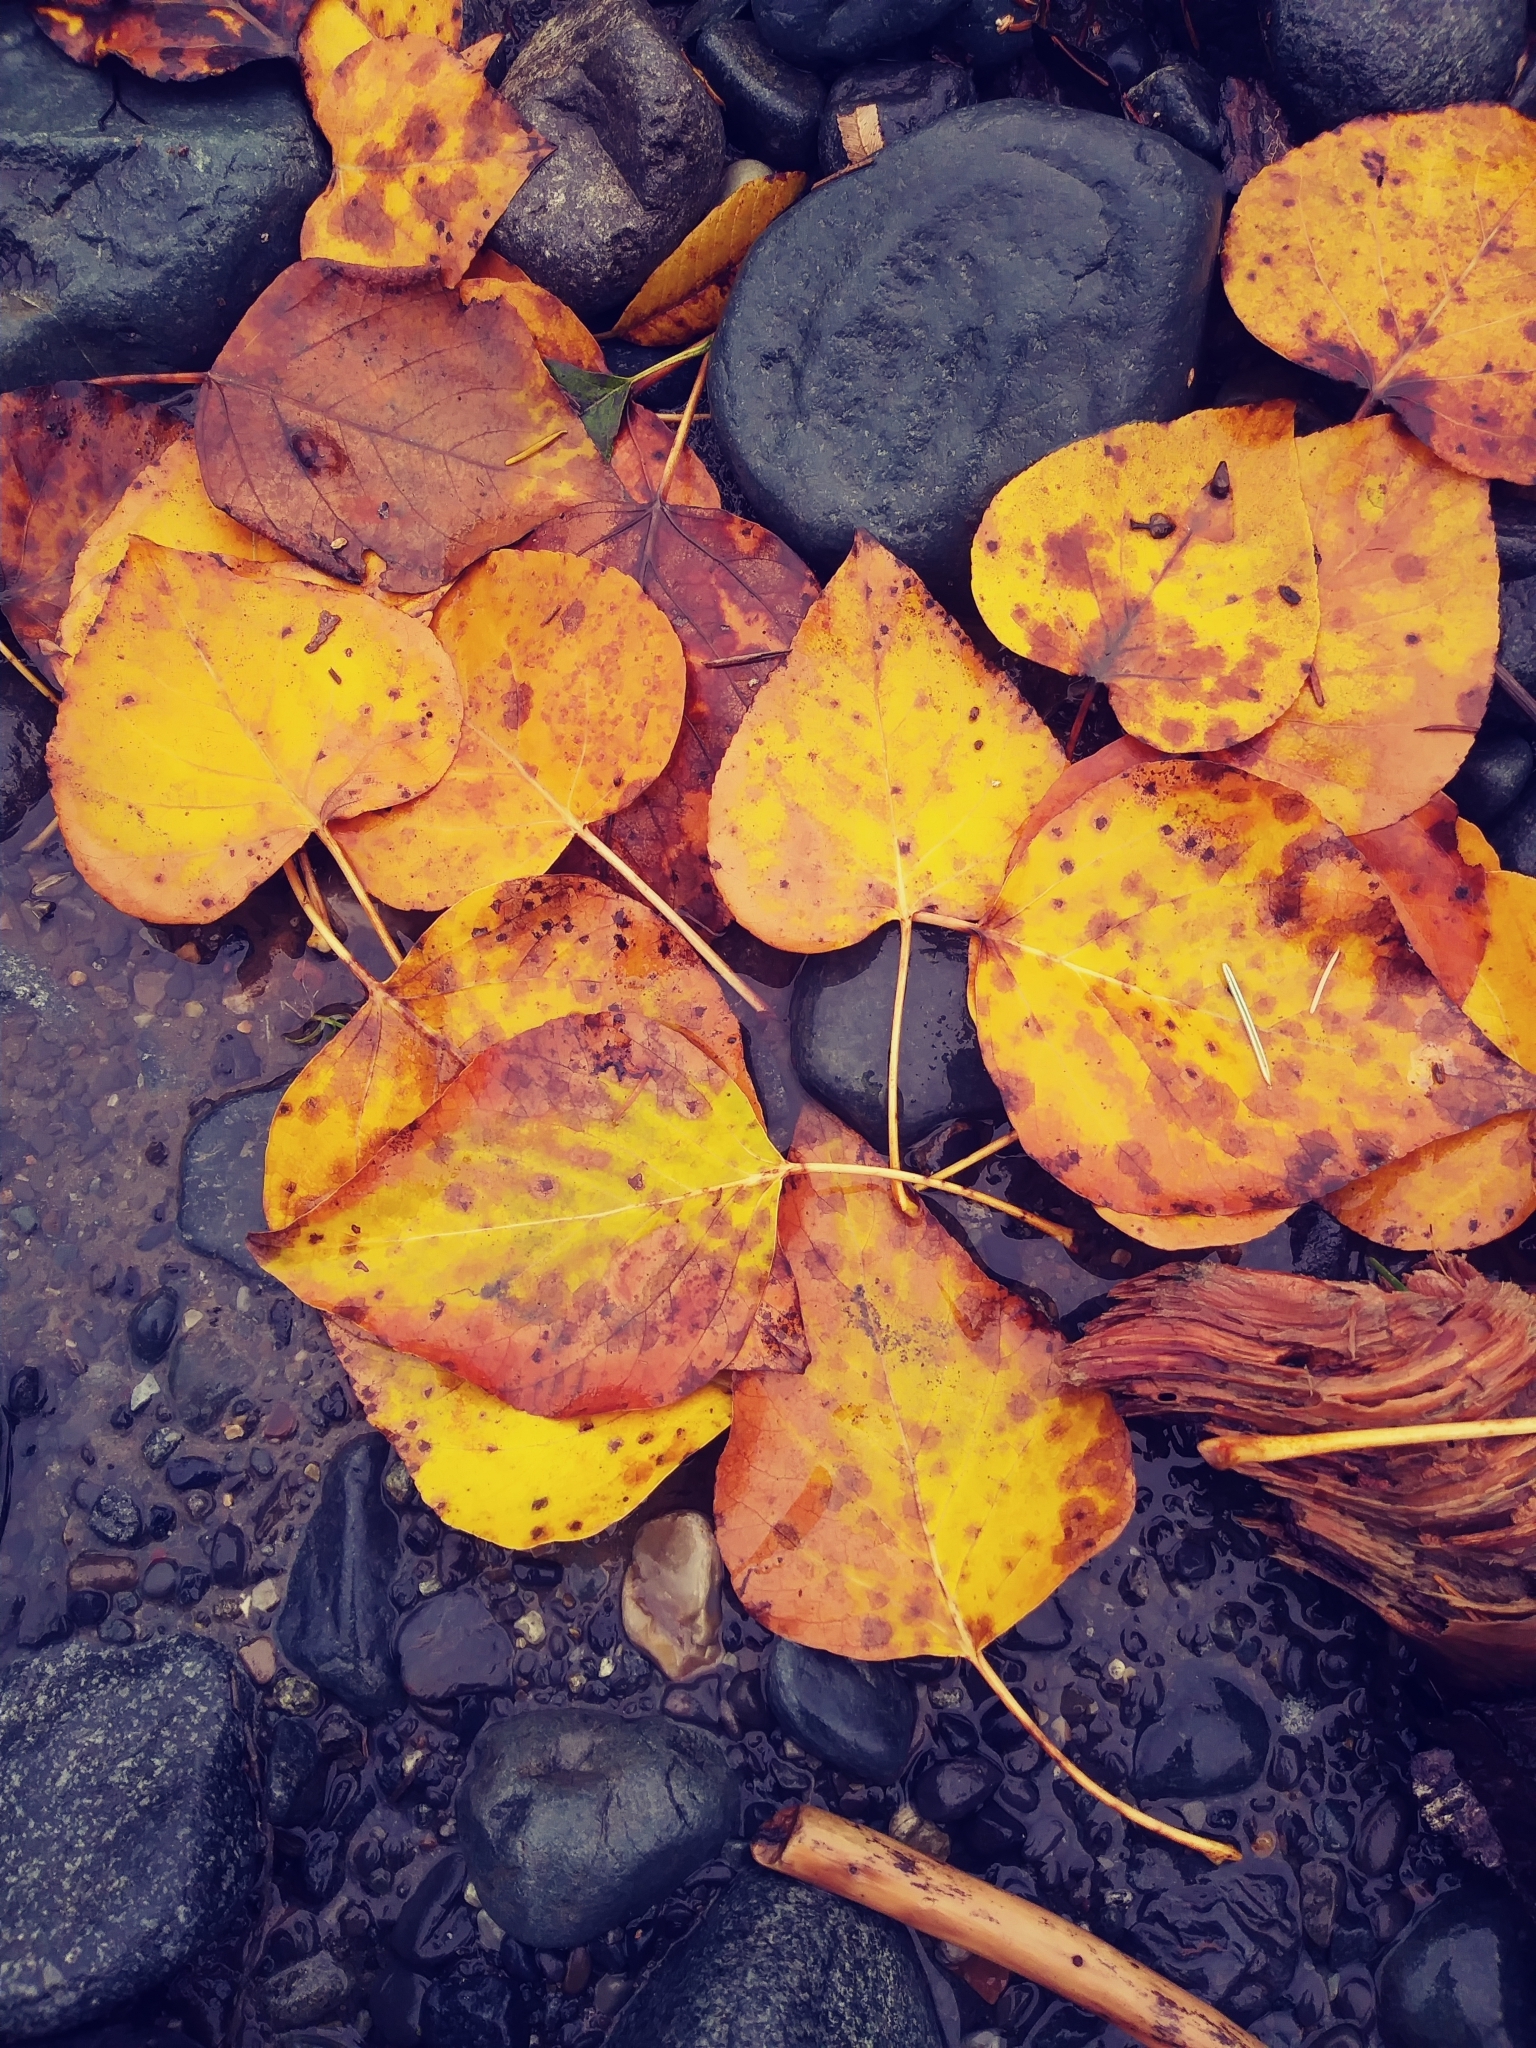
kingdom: Plantae
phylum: Tracheophyta
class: Magnoliopsida
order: Malpighiales
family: Salicaceae
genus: Populus
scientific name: Populus tremuloides
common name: Quaking aspen
